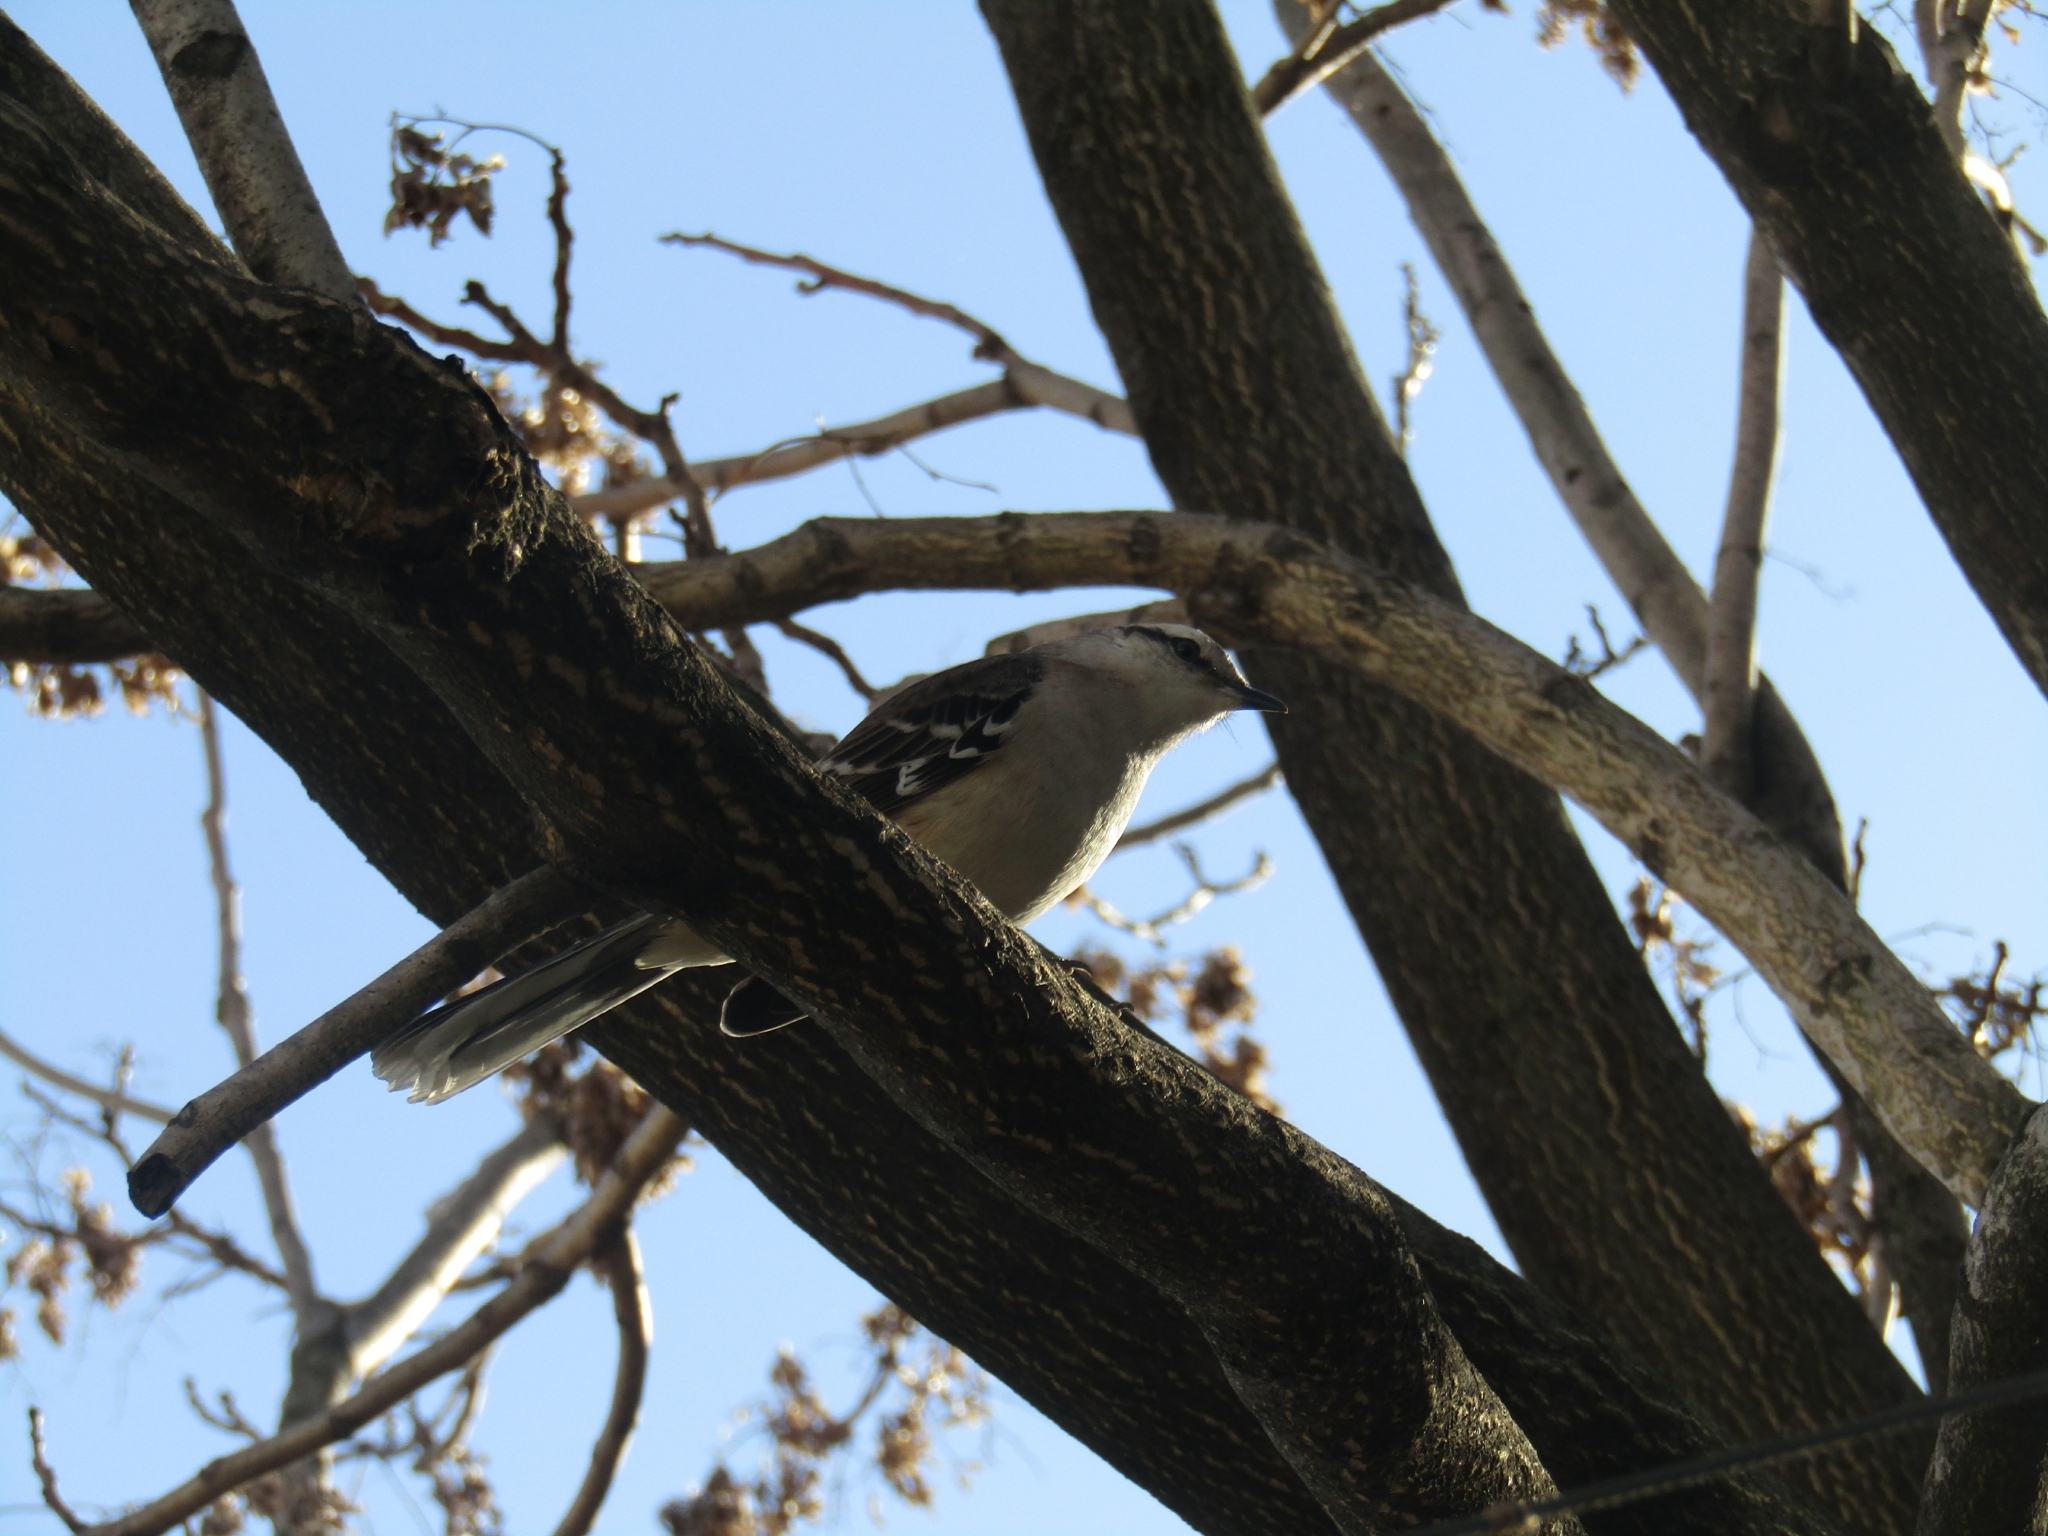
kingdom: Animalia
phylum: Chordata
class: Aves
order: Passeriformes
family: Mimidae
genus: Mimus
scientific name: Mimus saturninus
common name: Chalk-browed mockingbird
